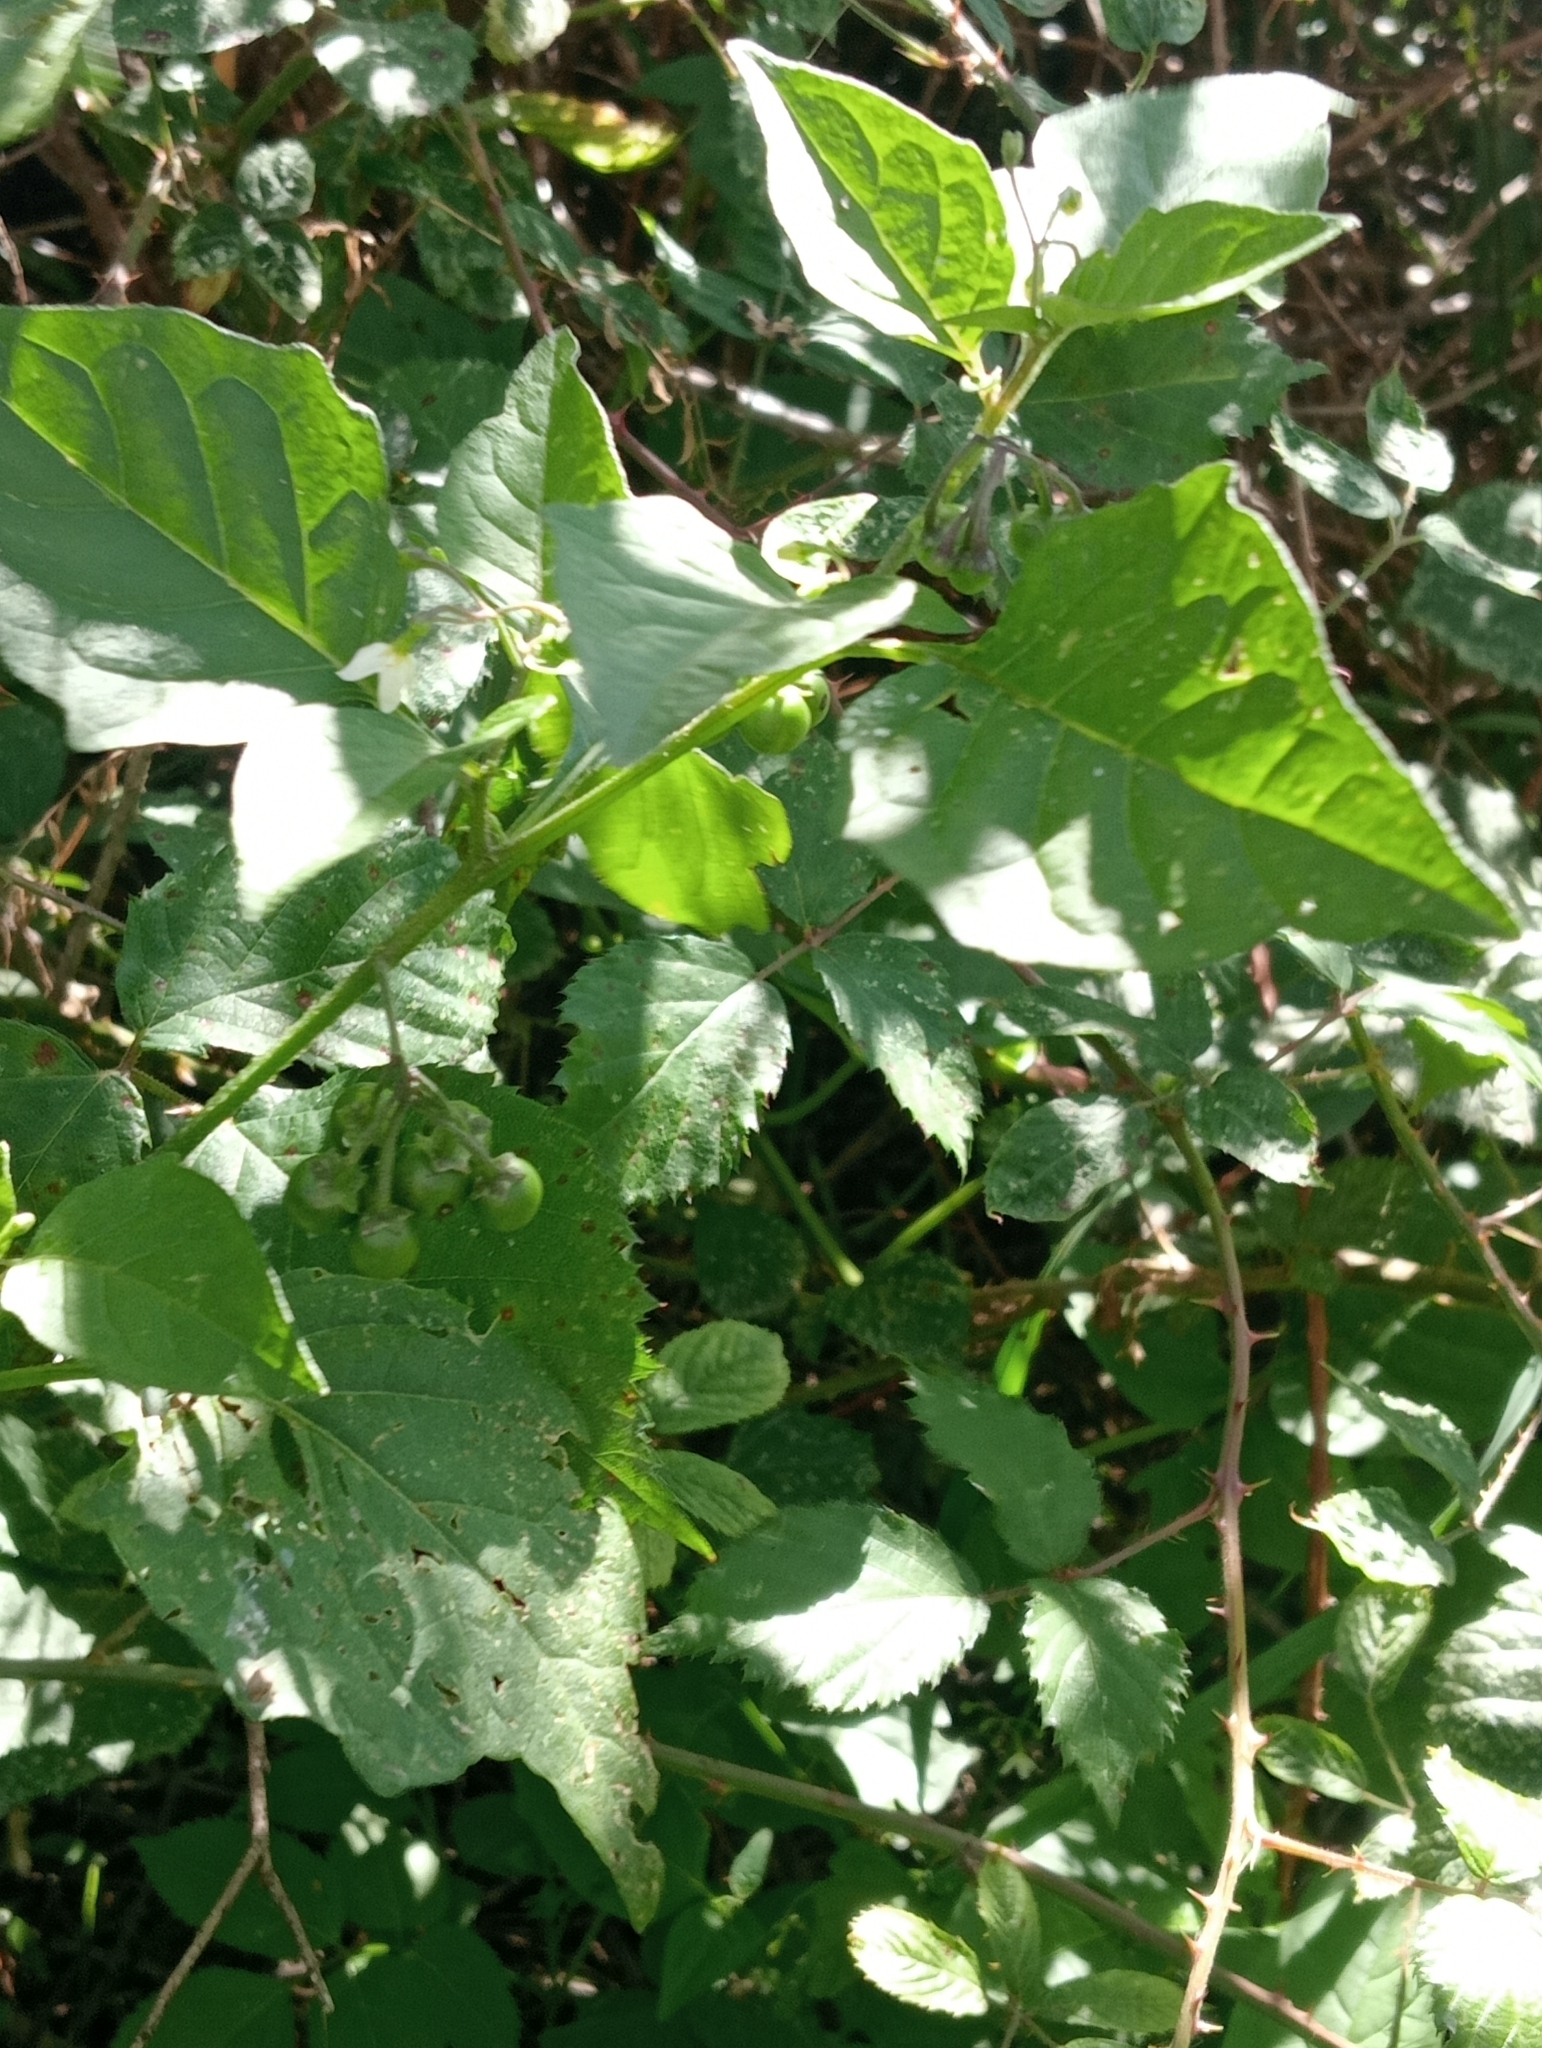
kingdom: Plantae
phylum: Tracheophyta
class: Magnoliopsida
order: Solanales
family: Solanaceae
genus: Solanum
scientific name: Solanum nigrum
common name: Black nightshade
